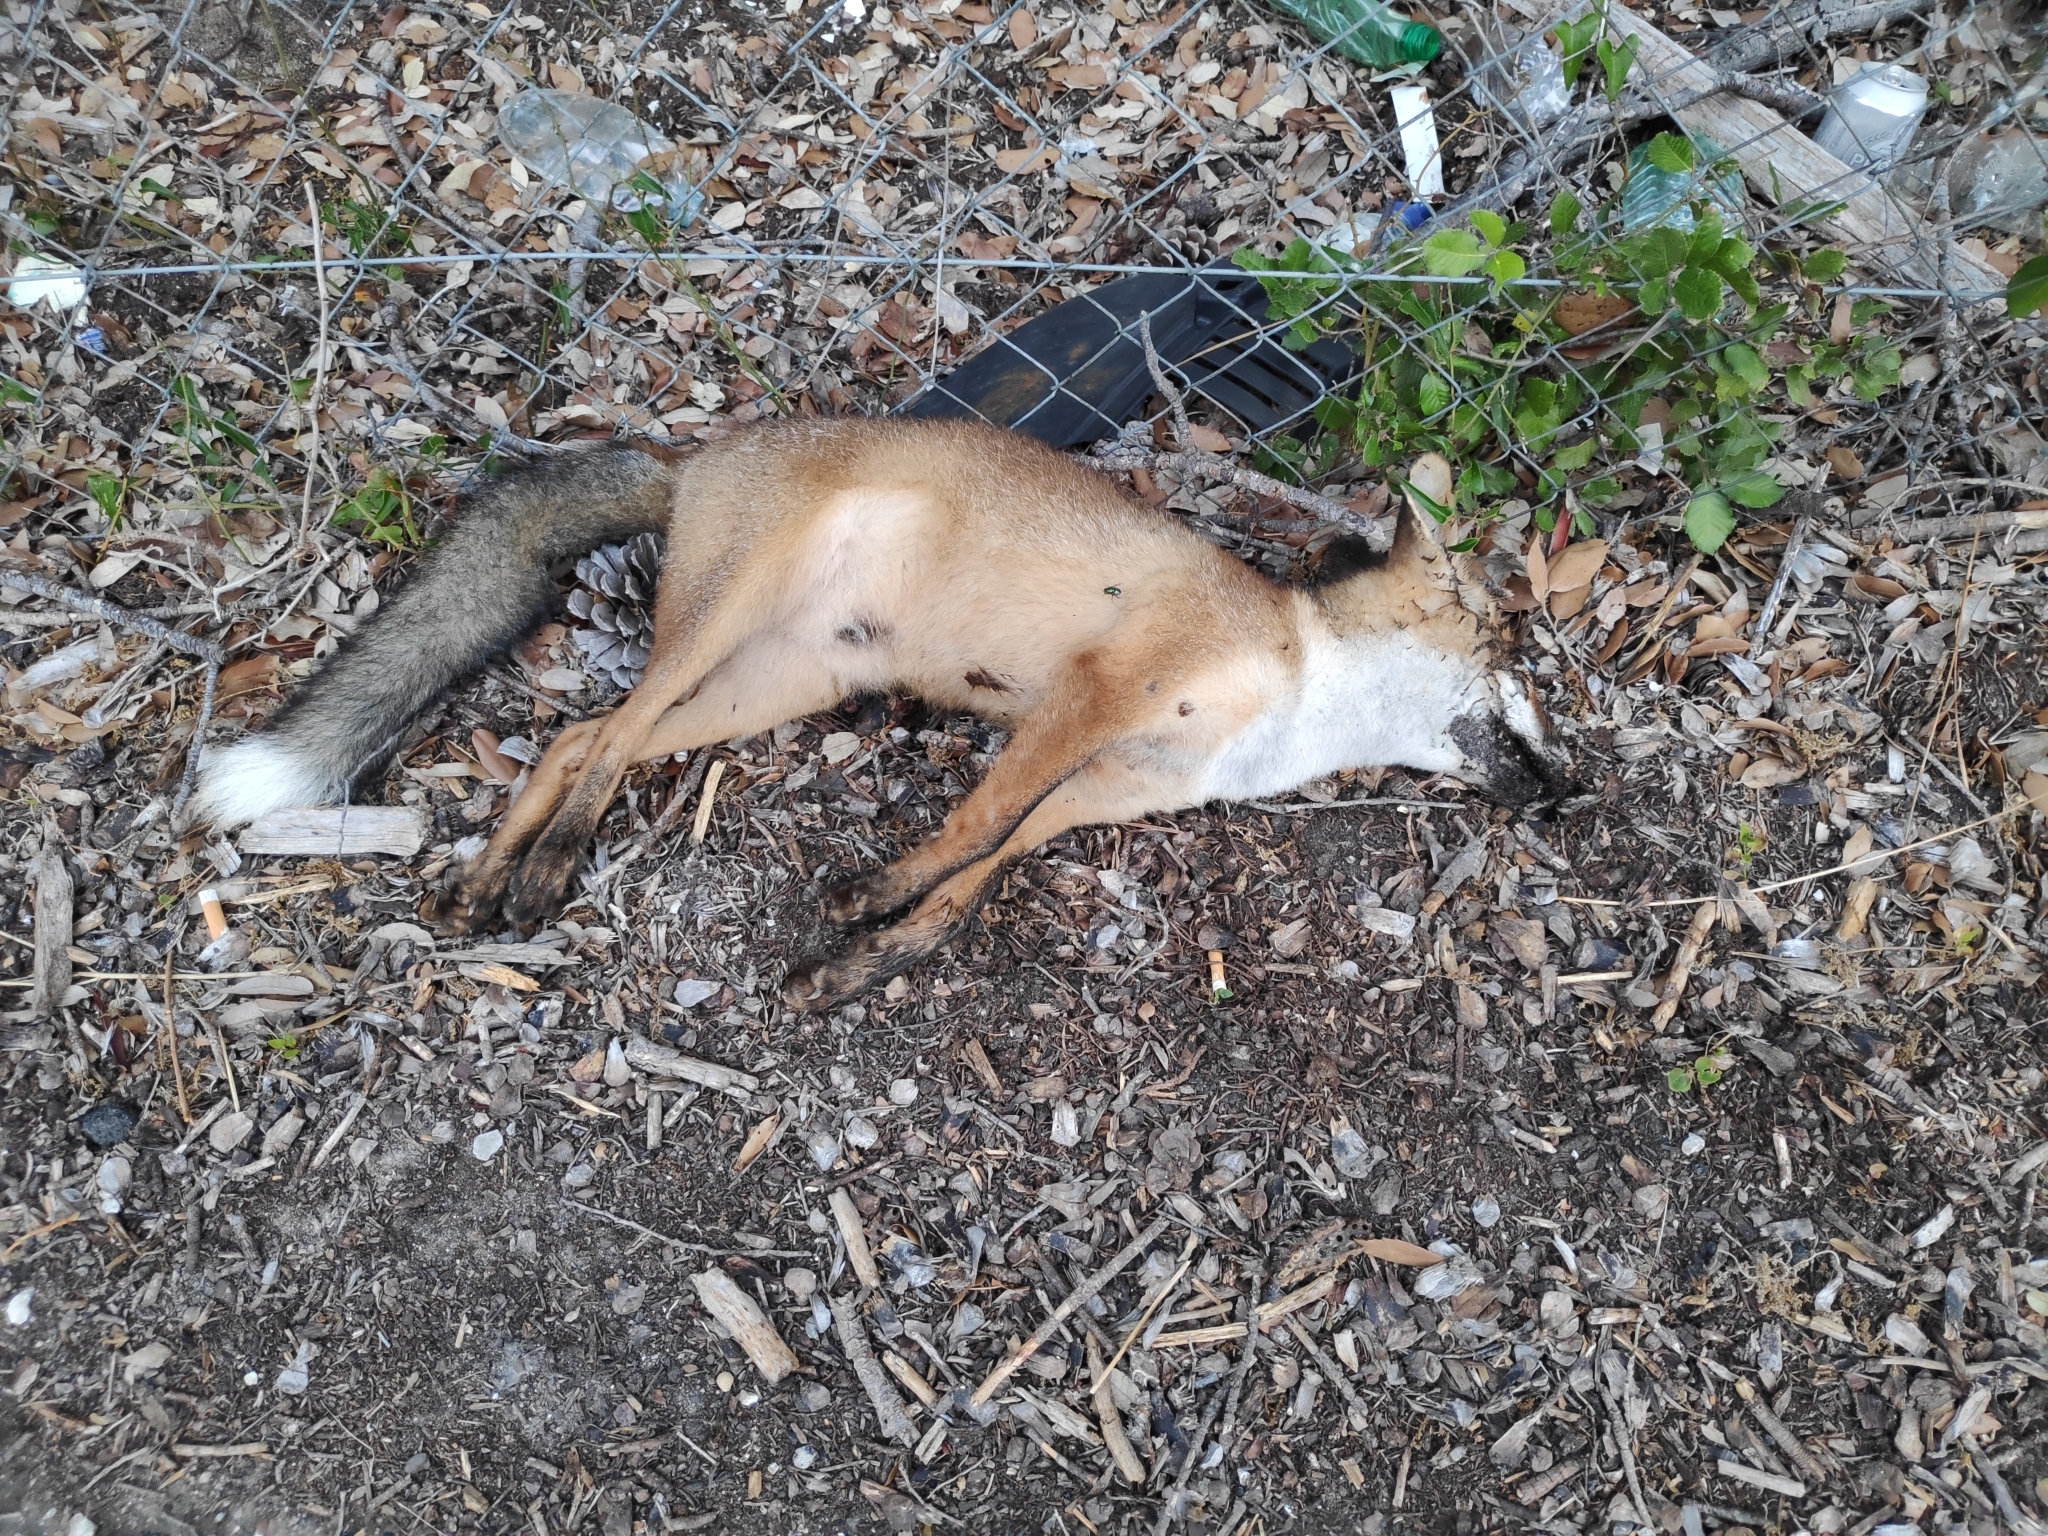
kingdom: Animalia
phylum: Chordata
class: Mammalia
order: Carnivora
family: Canidae
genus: Vulpes
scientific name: Vulpes vulpes
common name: Red fox
